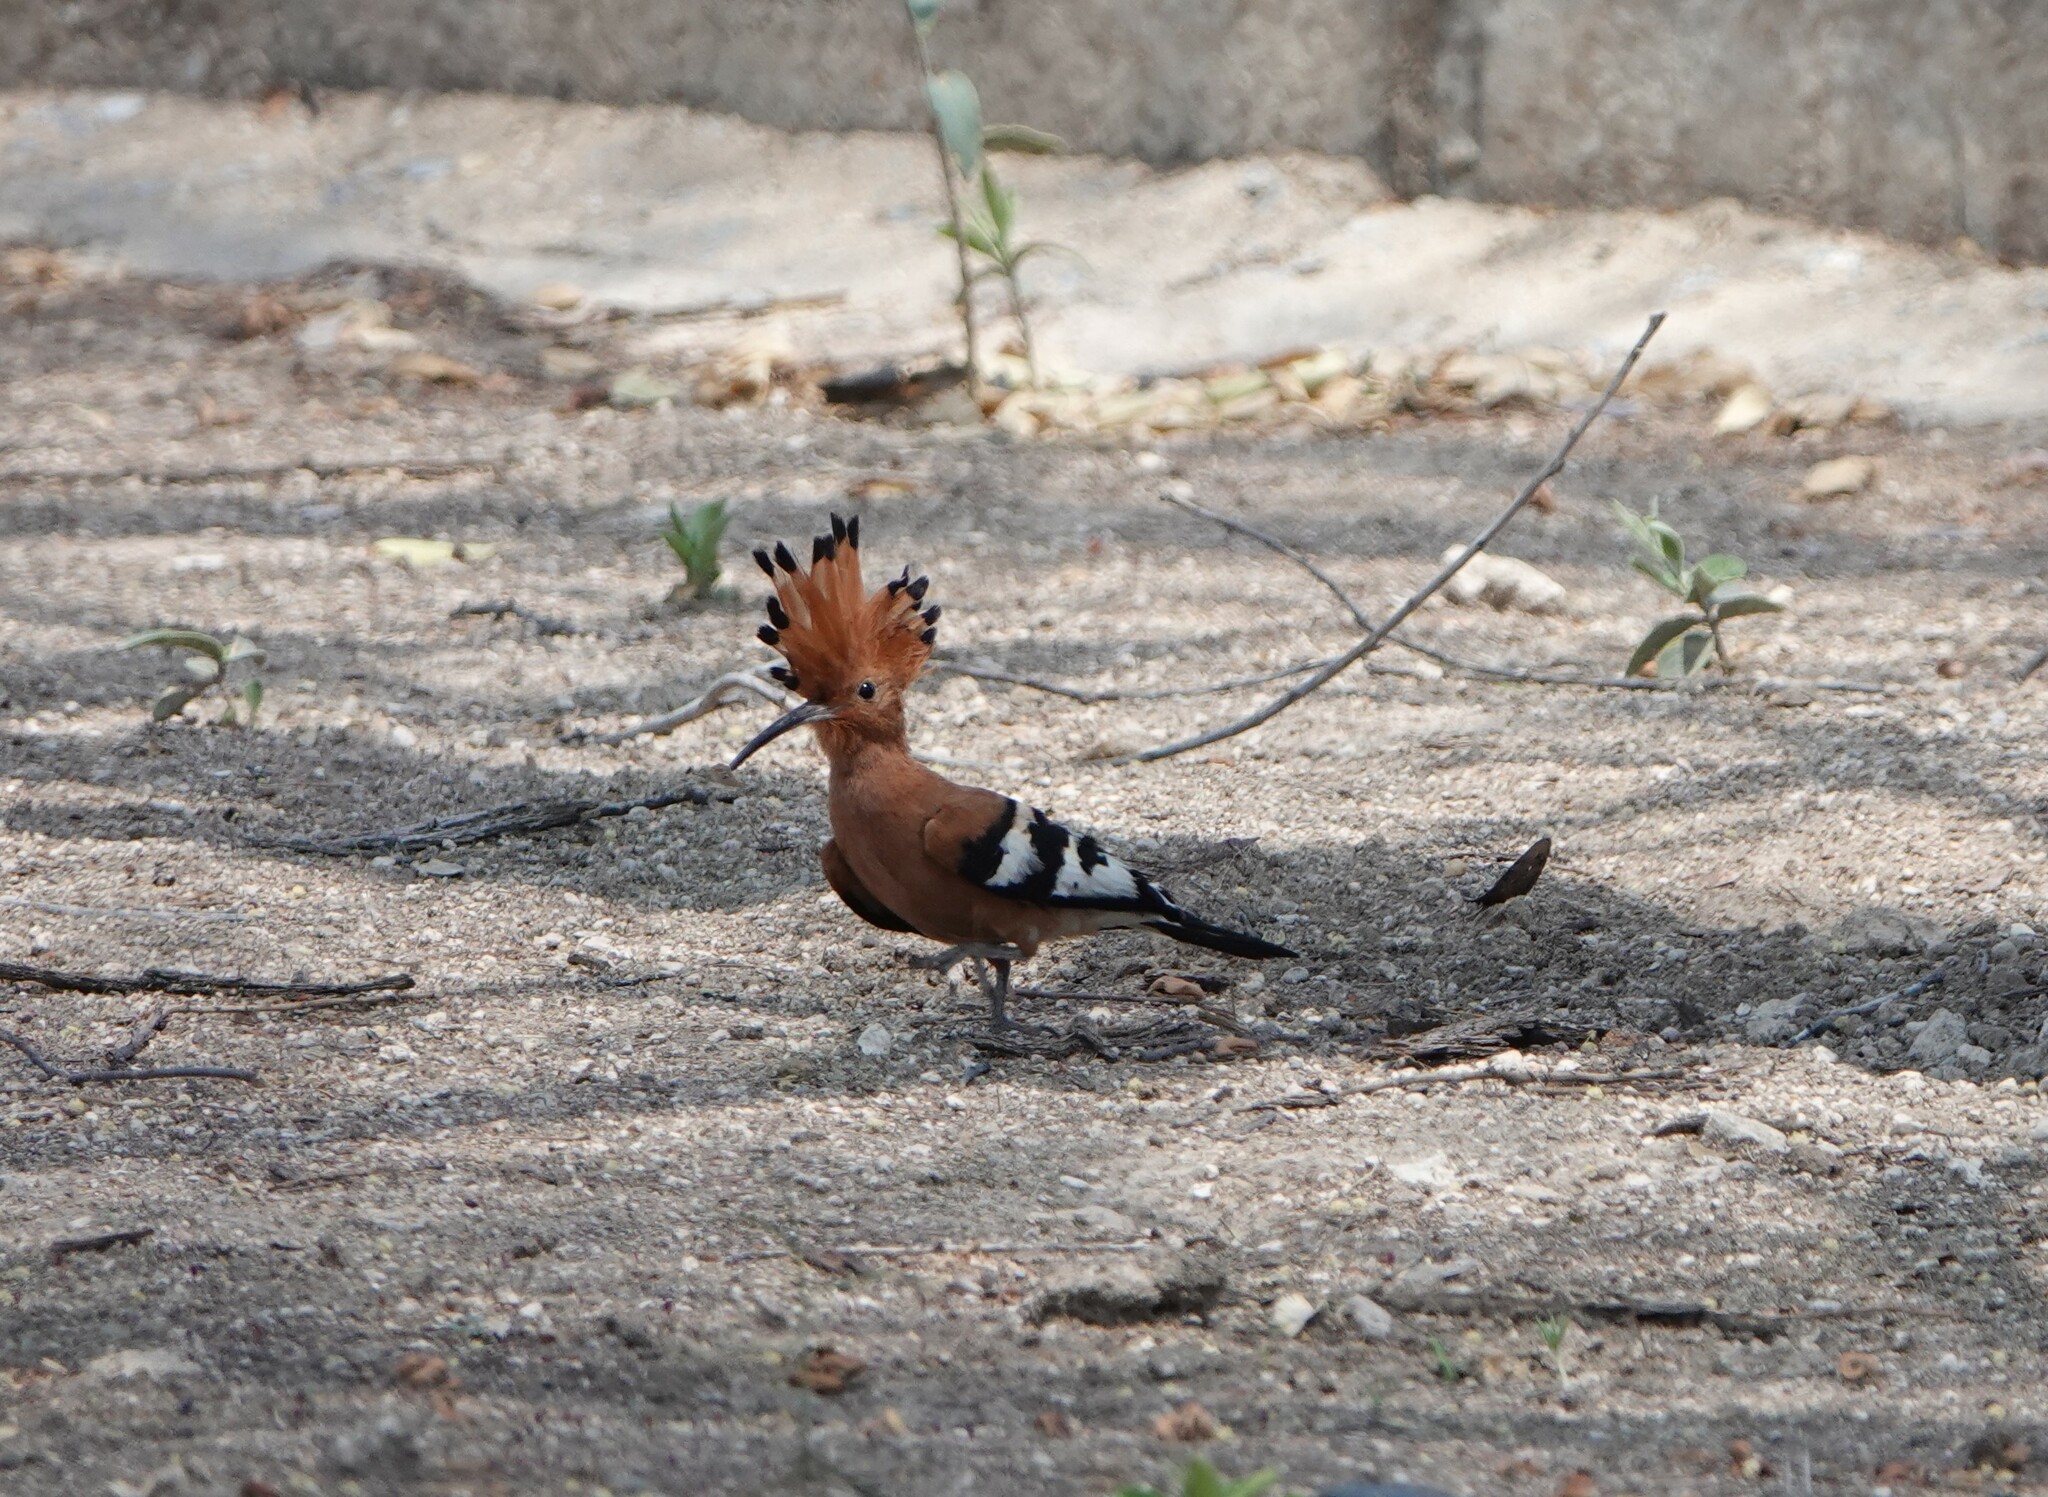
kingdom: Animalia
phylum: Chordata
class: Aves
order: Bucerotiformes
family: Upupidae
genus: Upupa
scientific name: Upupa africana
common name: African hoopoe
